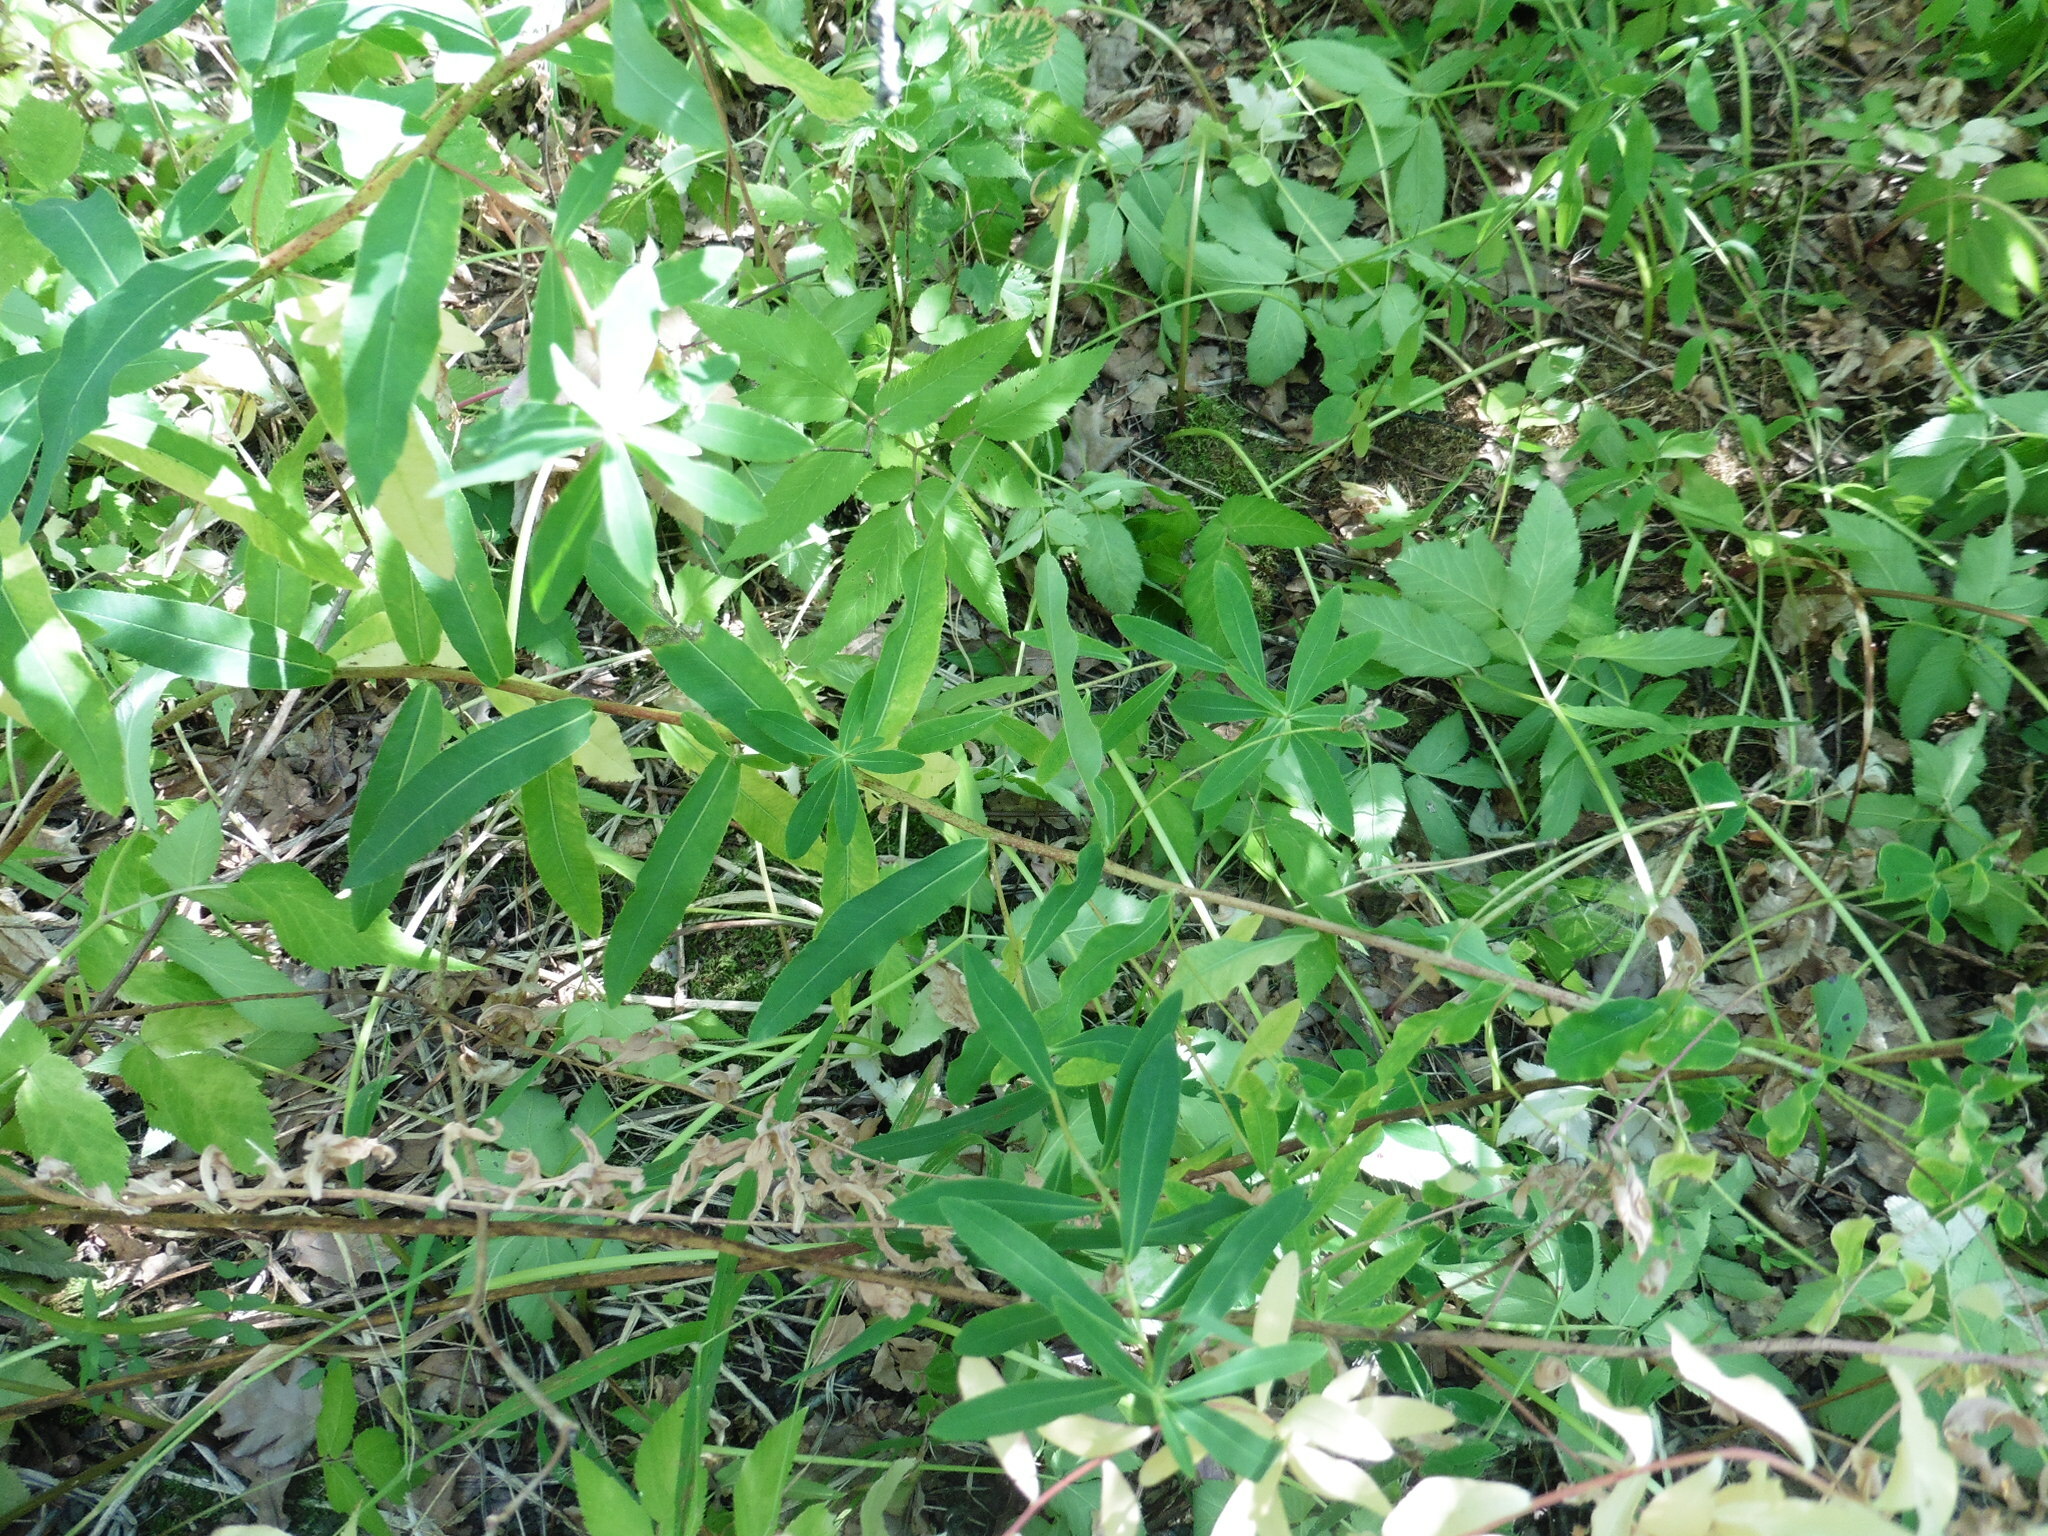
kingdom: Plantae
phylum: Tracheophyta
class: Magnoliopsida
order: Malpighiales
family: Euphorbiaceae
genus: Euphorbia
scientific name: Euphorbia semivillosa
